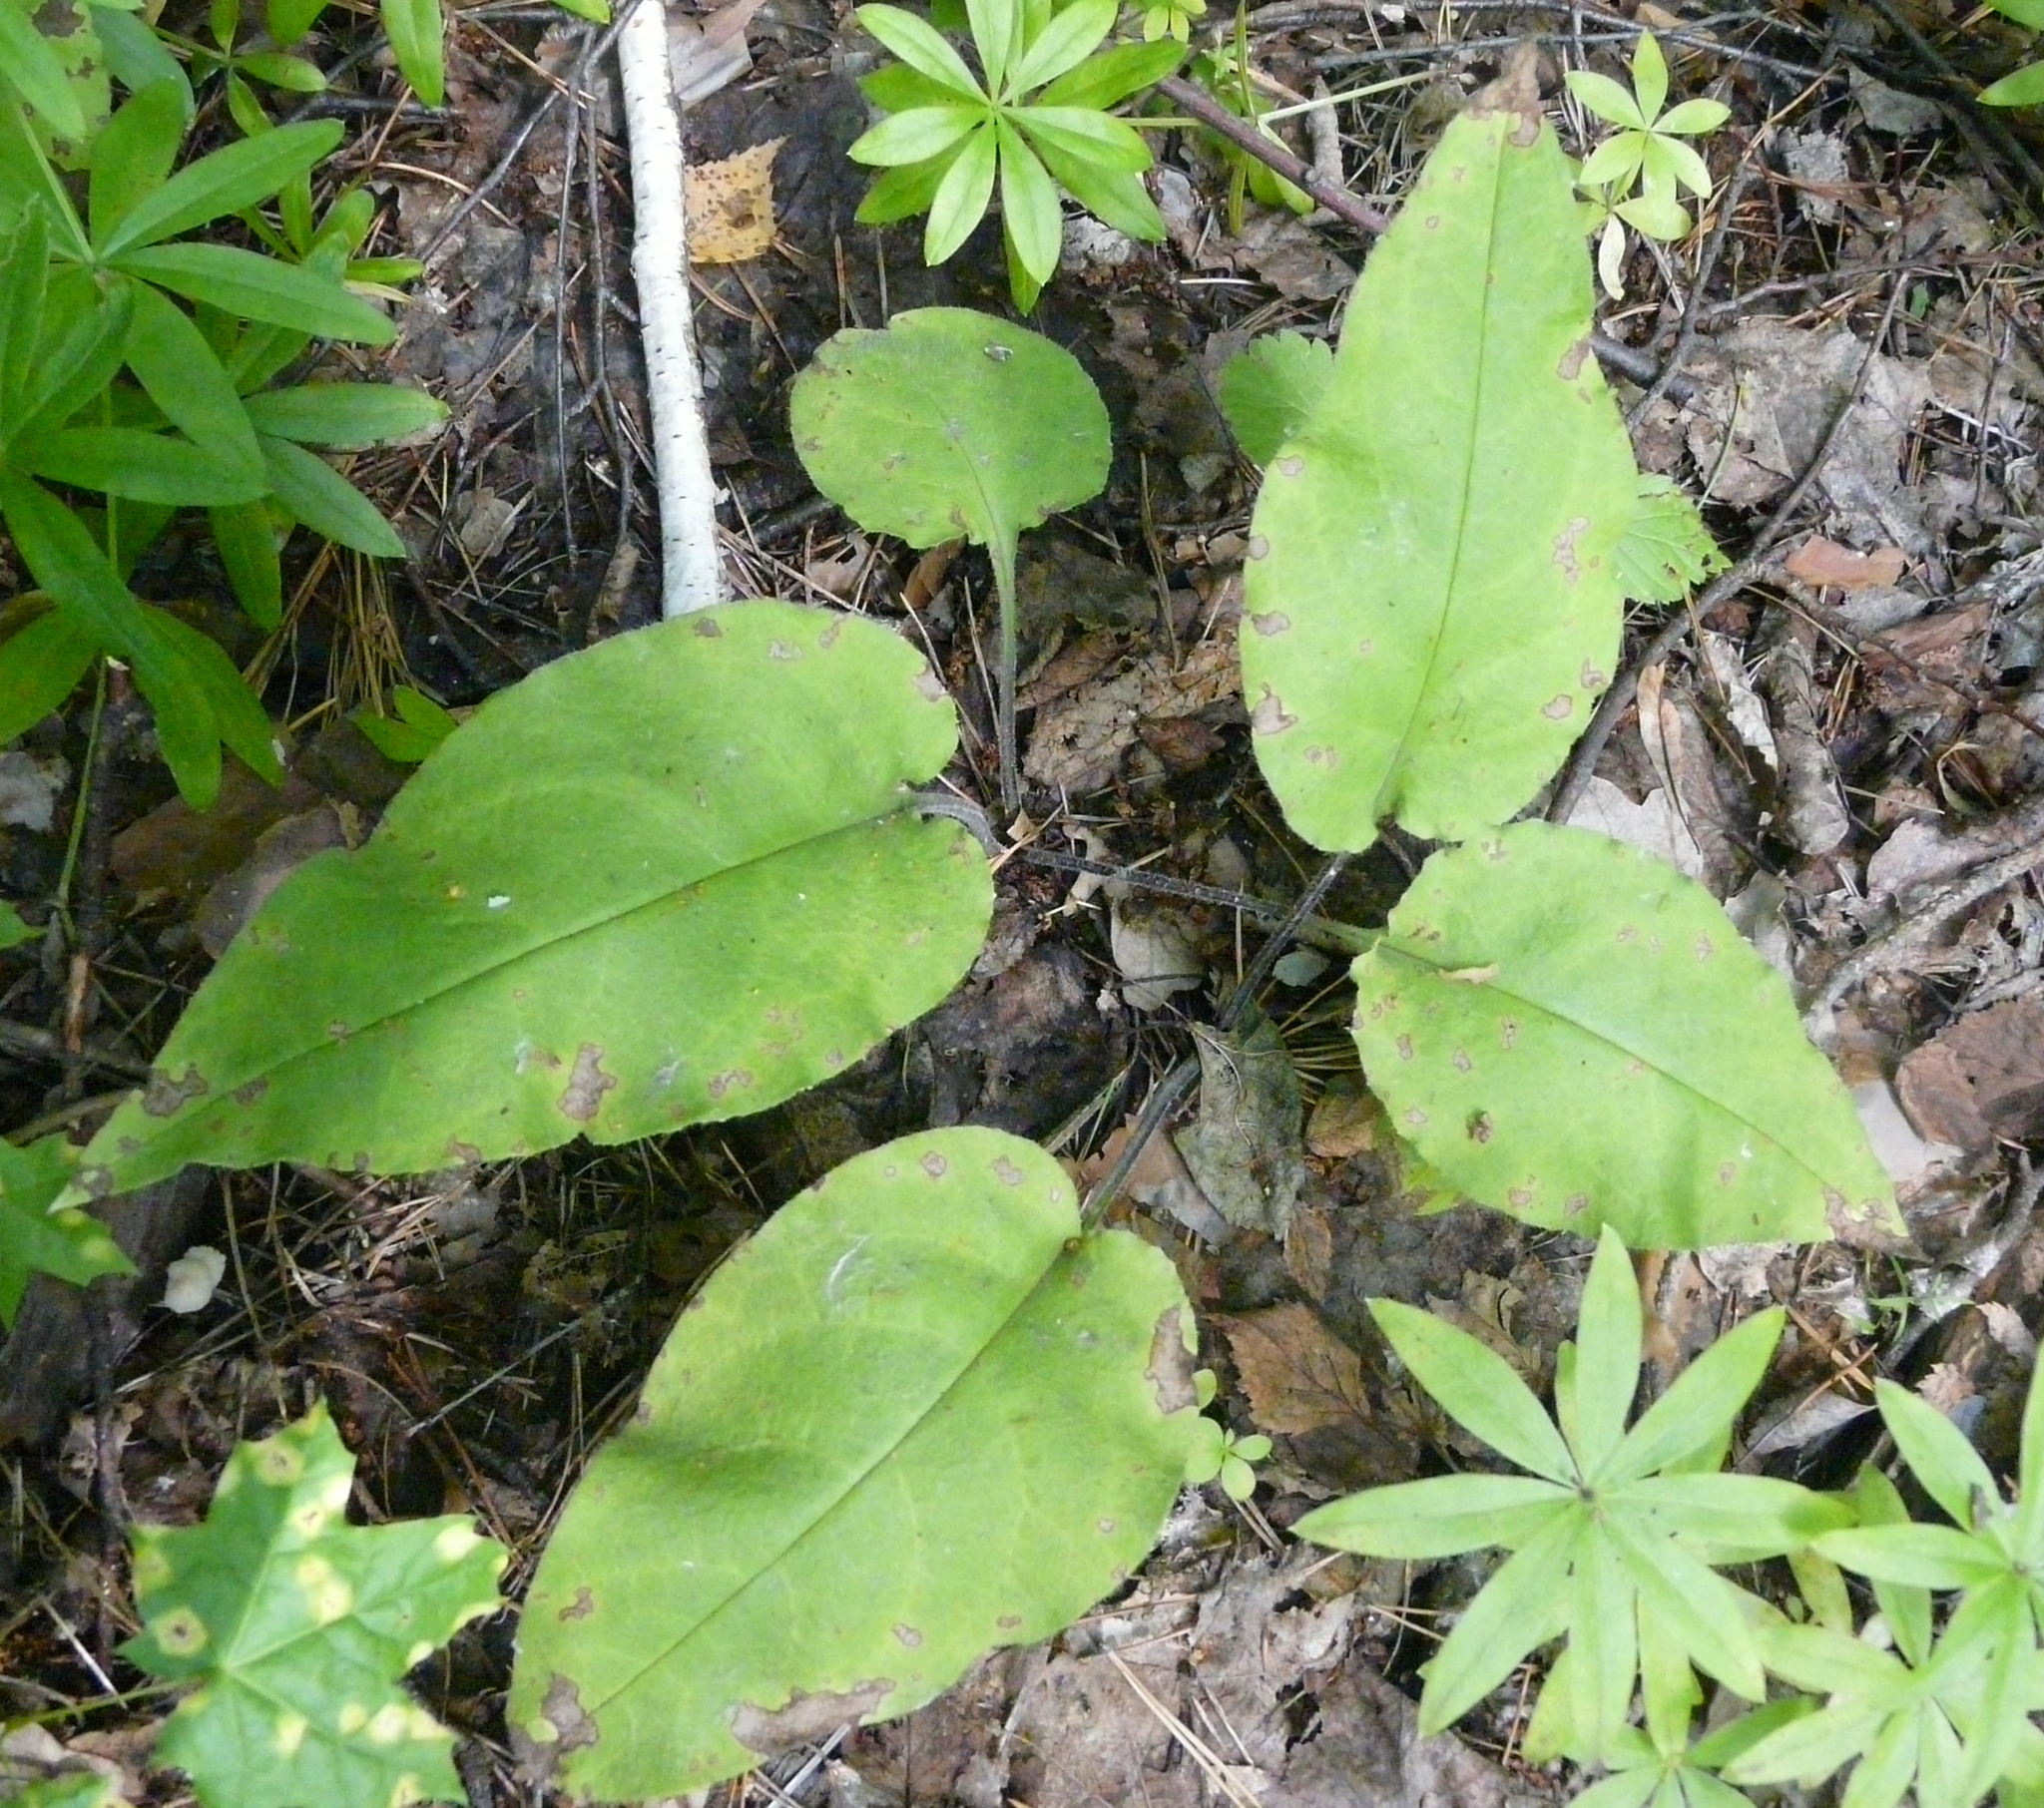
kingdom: Plantae
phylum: Tracheophyta
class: Magnoliopsida
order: Boraginales
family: Boraginaceae
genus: Pulmonaria
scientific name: Pulmonaria obscura
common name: Suffolk lungwort
